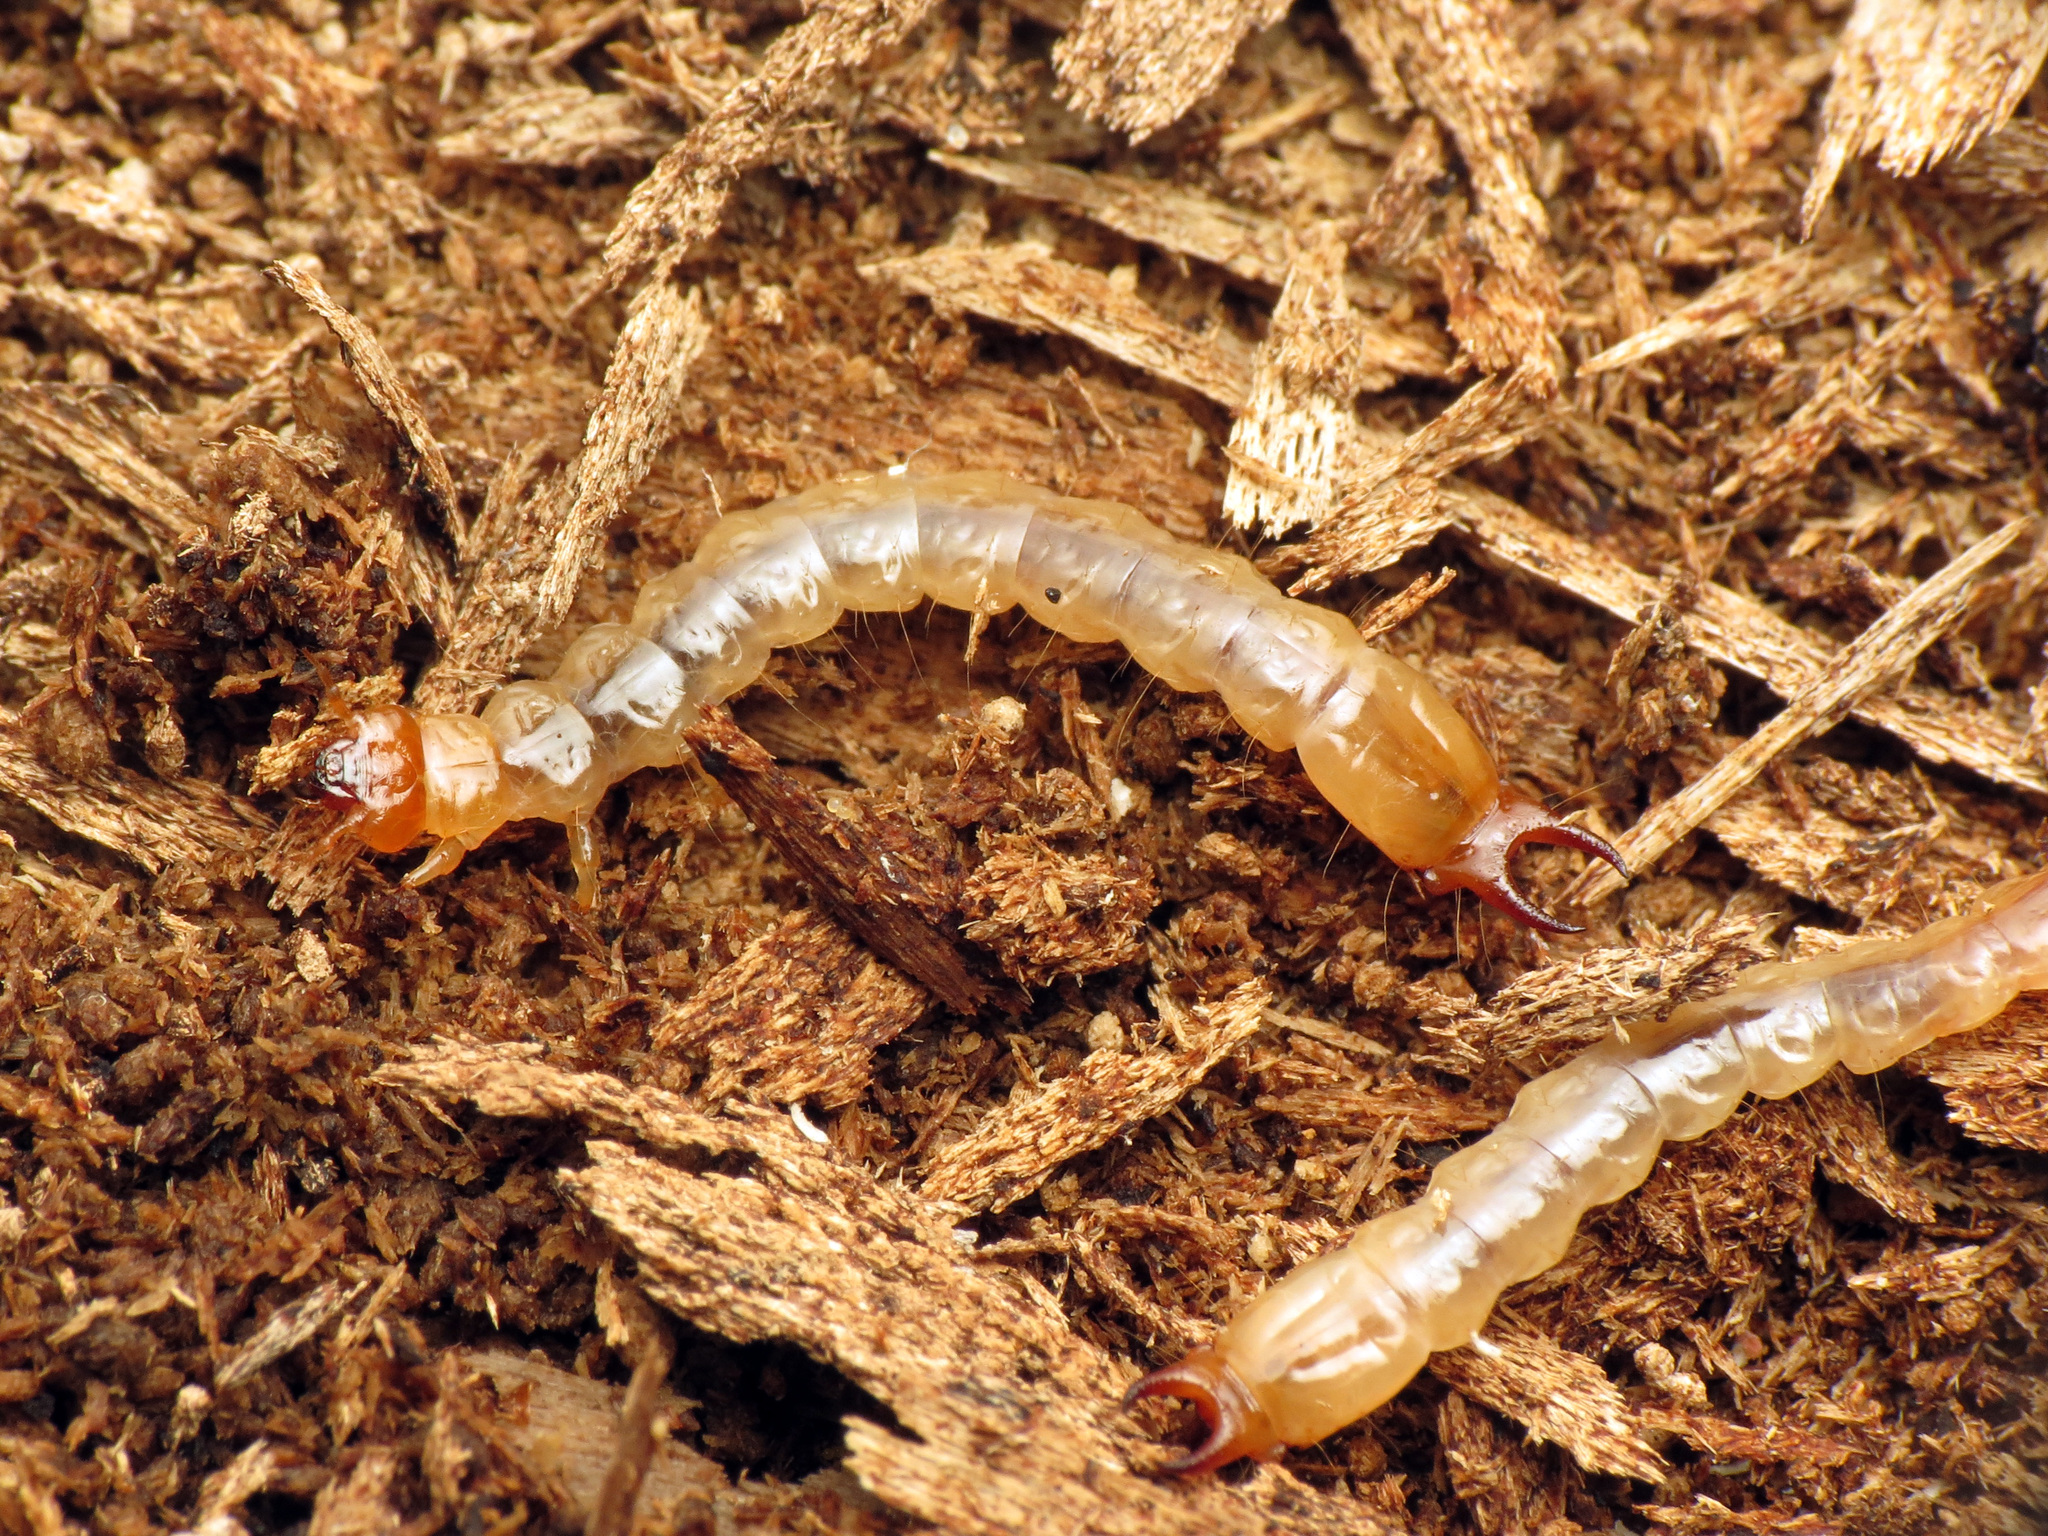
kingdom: Animalia
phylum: Arthropoda
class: Insecta
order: Coleoptera
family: Pyrochroidae
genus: Dendroides
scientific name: Dendroides canadensis
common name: Canada fire-colored beetle
